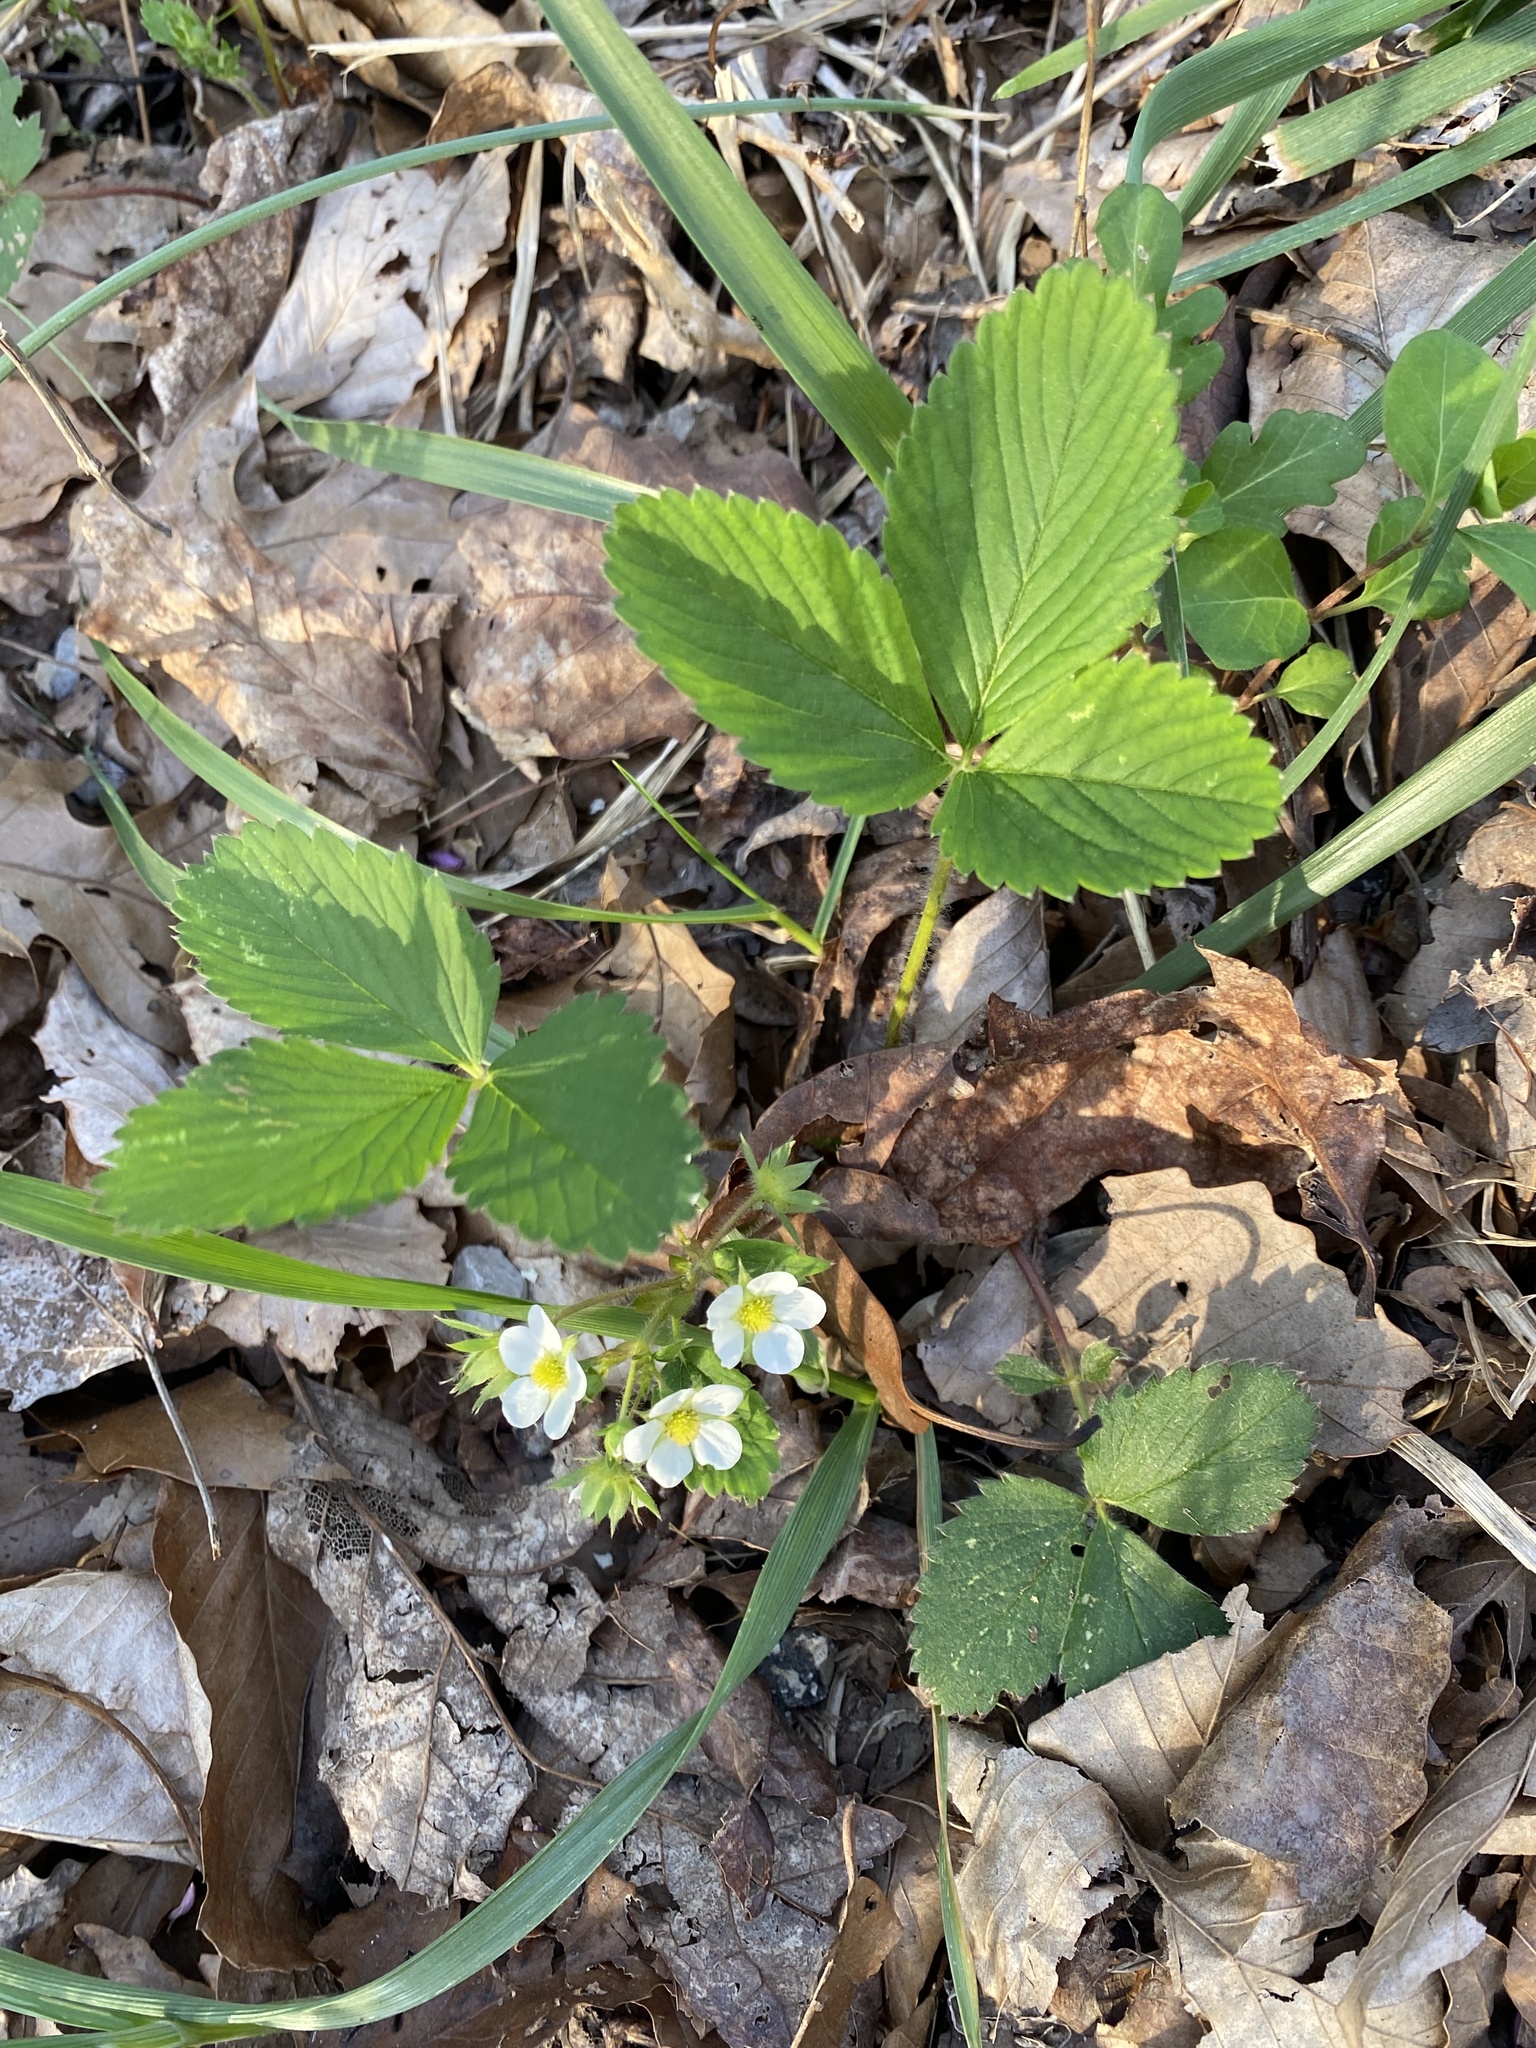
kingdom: Plantae
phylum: Tracheophyta
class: Magnoliopsida
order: Rosales
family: Rosaceae
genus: Fragaria
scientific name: Fragaria virginiana
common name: Thickleaved wild strawberry
